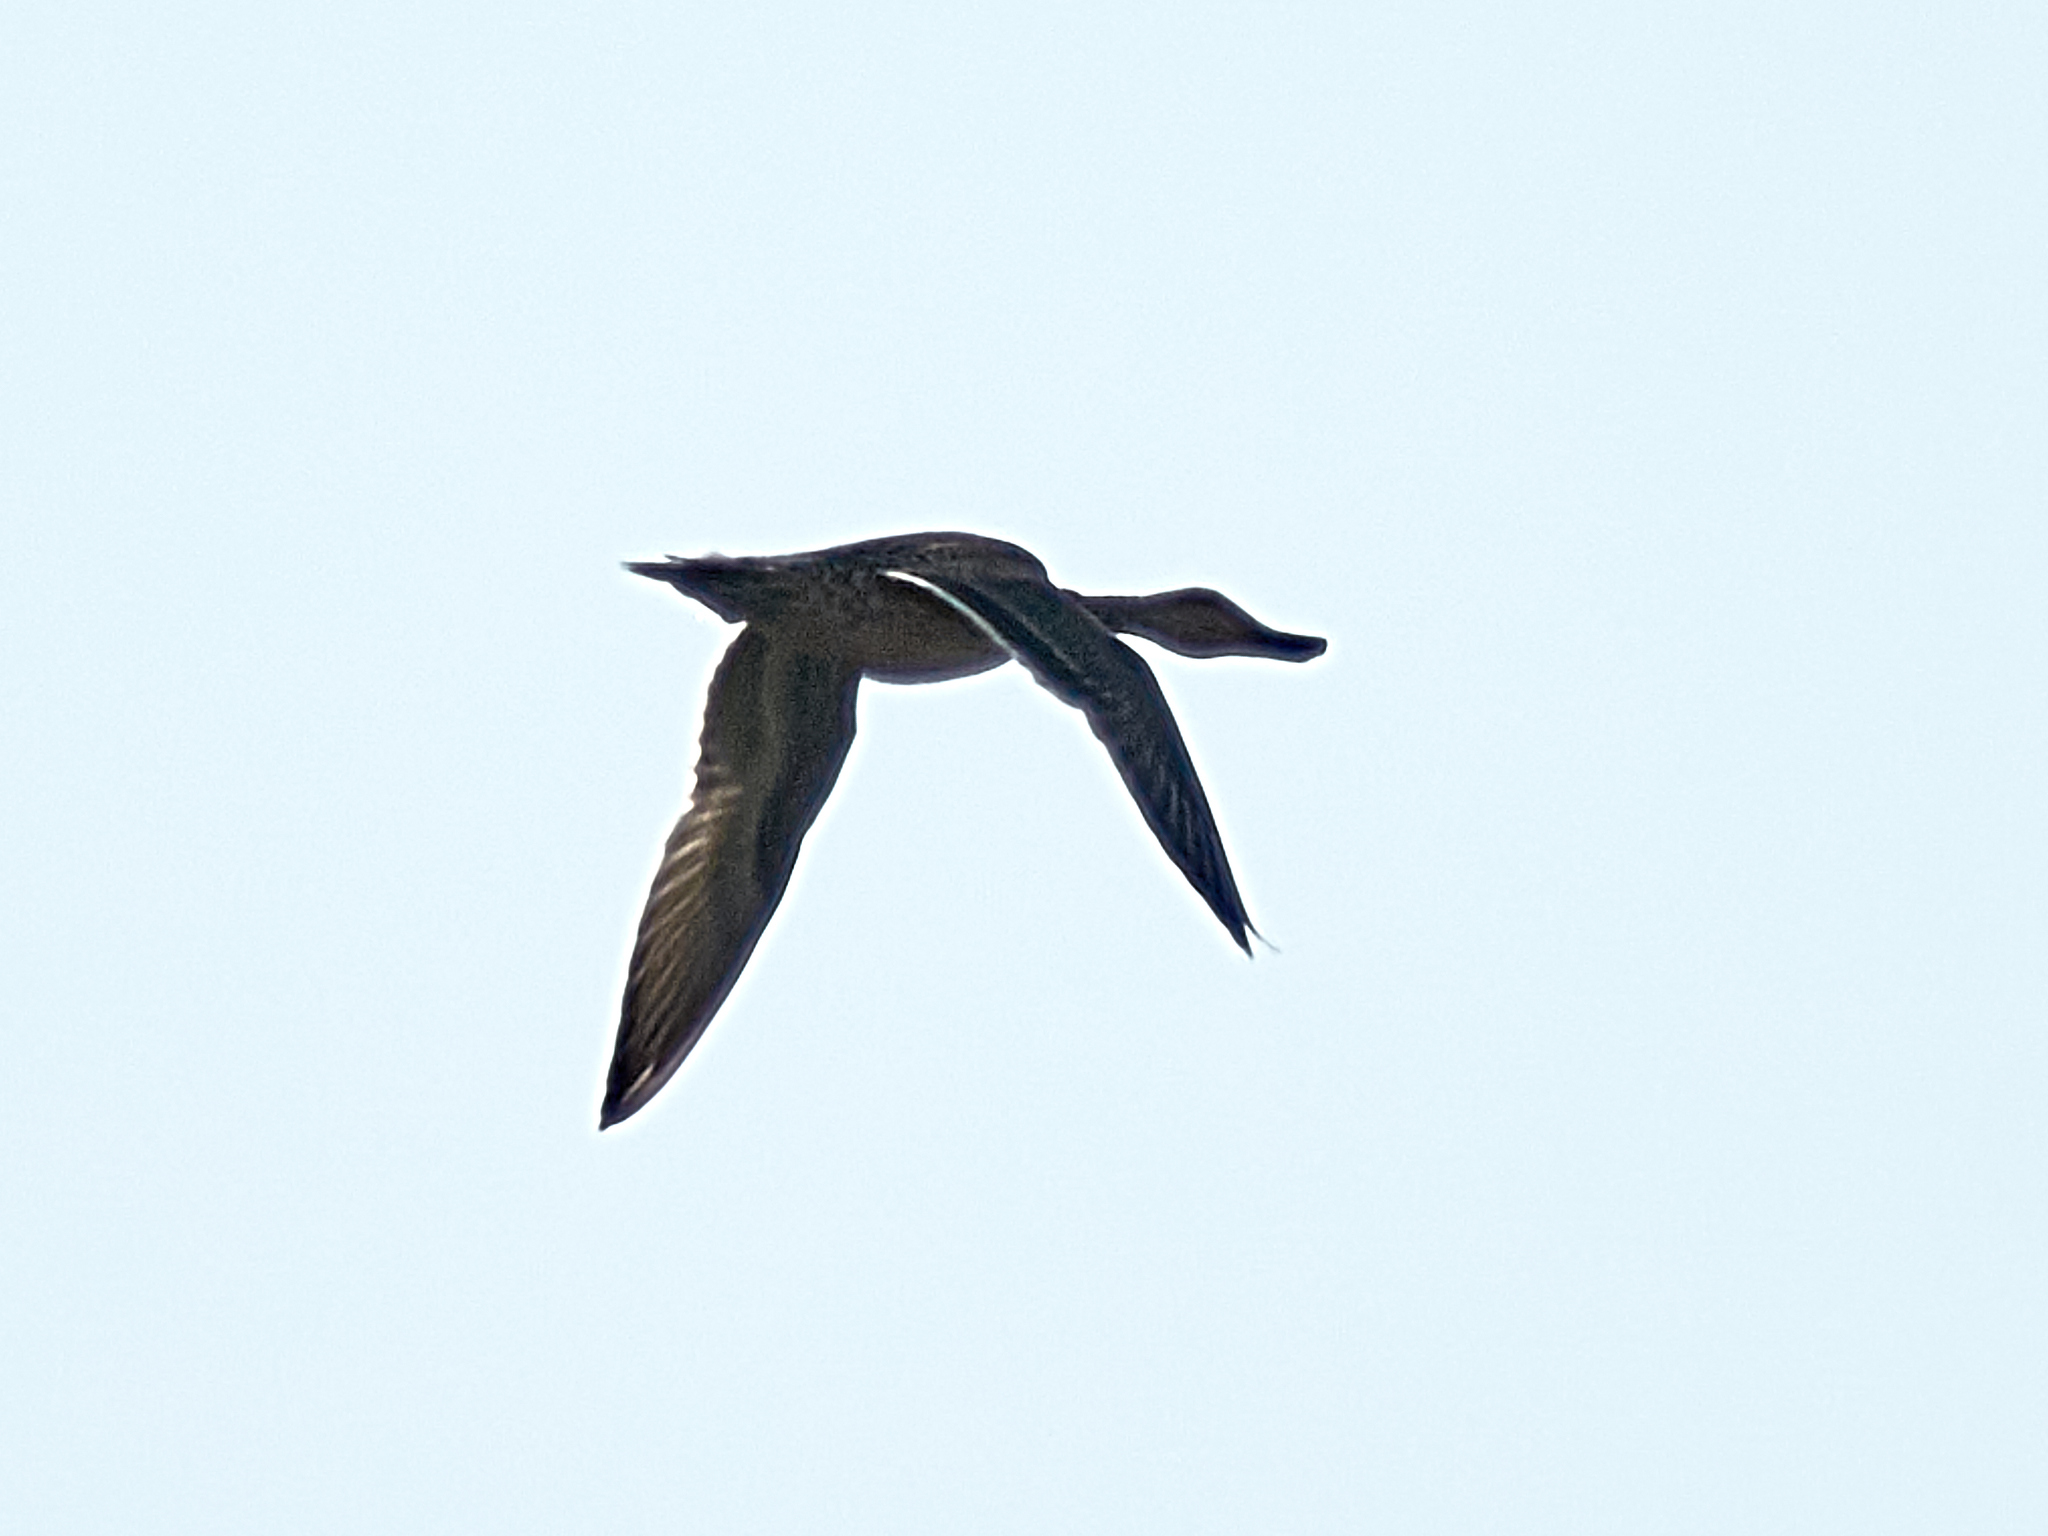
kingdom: Animalia
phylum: Chordata
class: Aves
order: Anseriformes
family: Anatidae
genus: Anas
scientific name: Anas acuta
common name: Northern pintail
